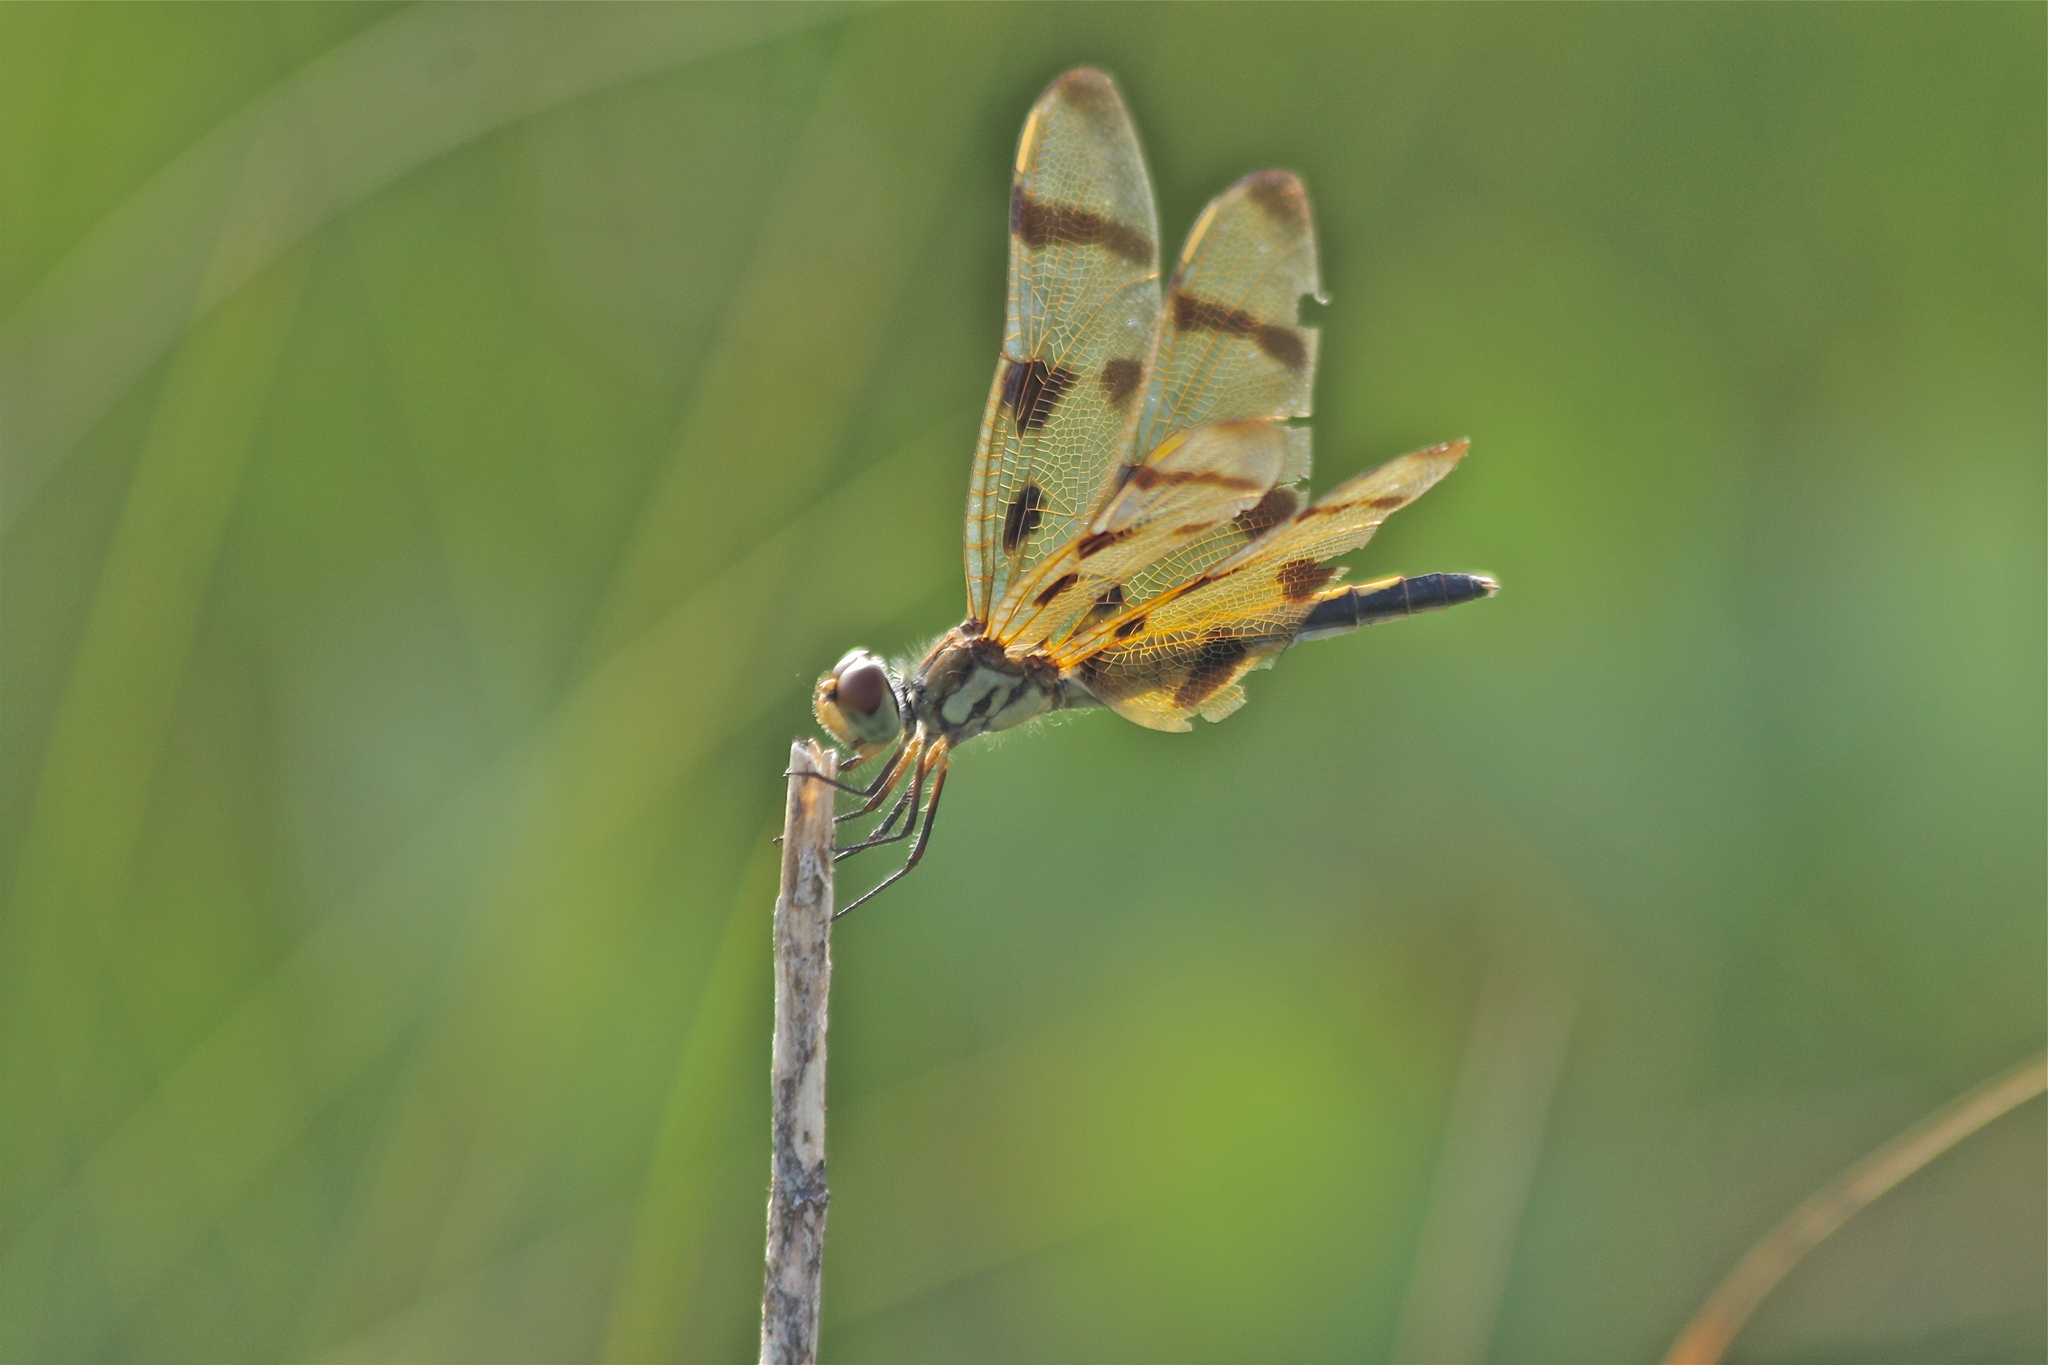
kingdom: Animalia
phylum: Arthropoda
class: Insecta
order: Odonata
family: Libellulidae
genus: Celithemis
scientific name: Celithemis eponina
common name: Halloween pennant
